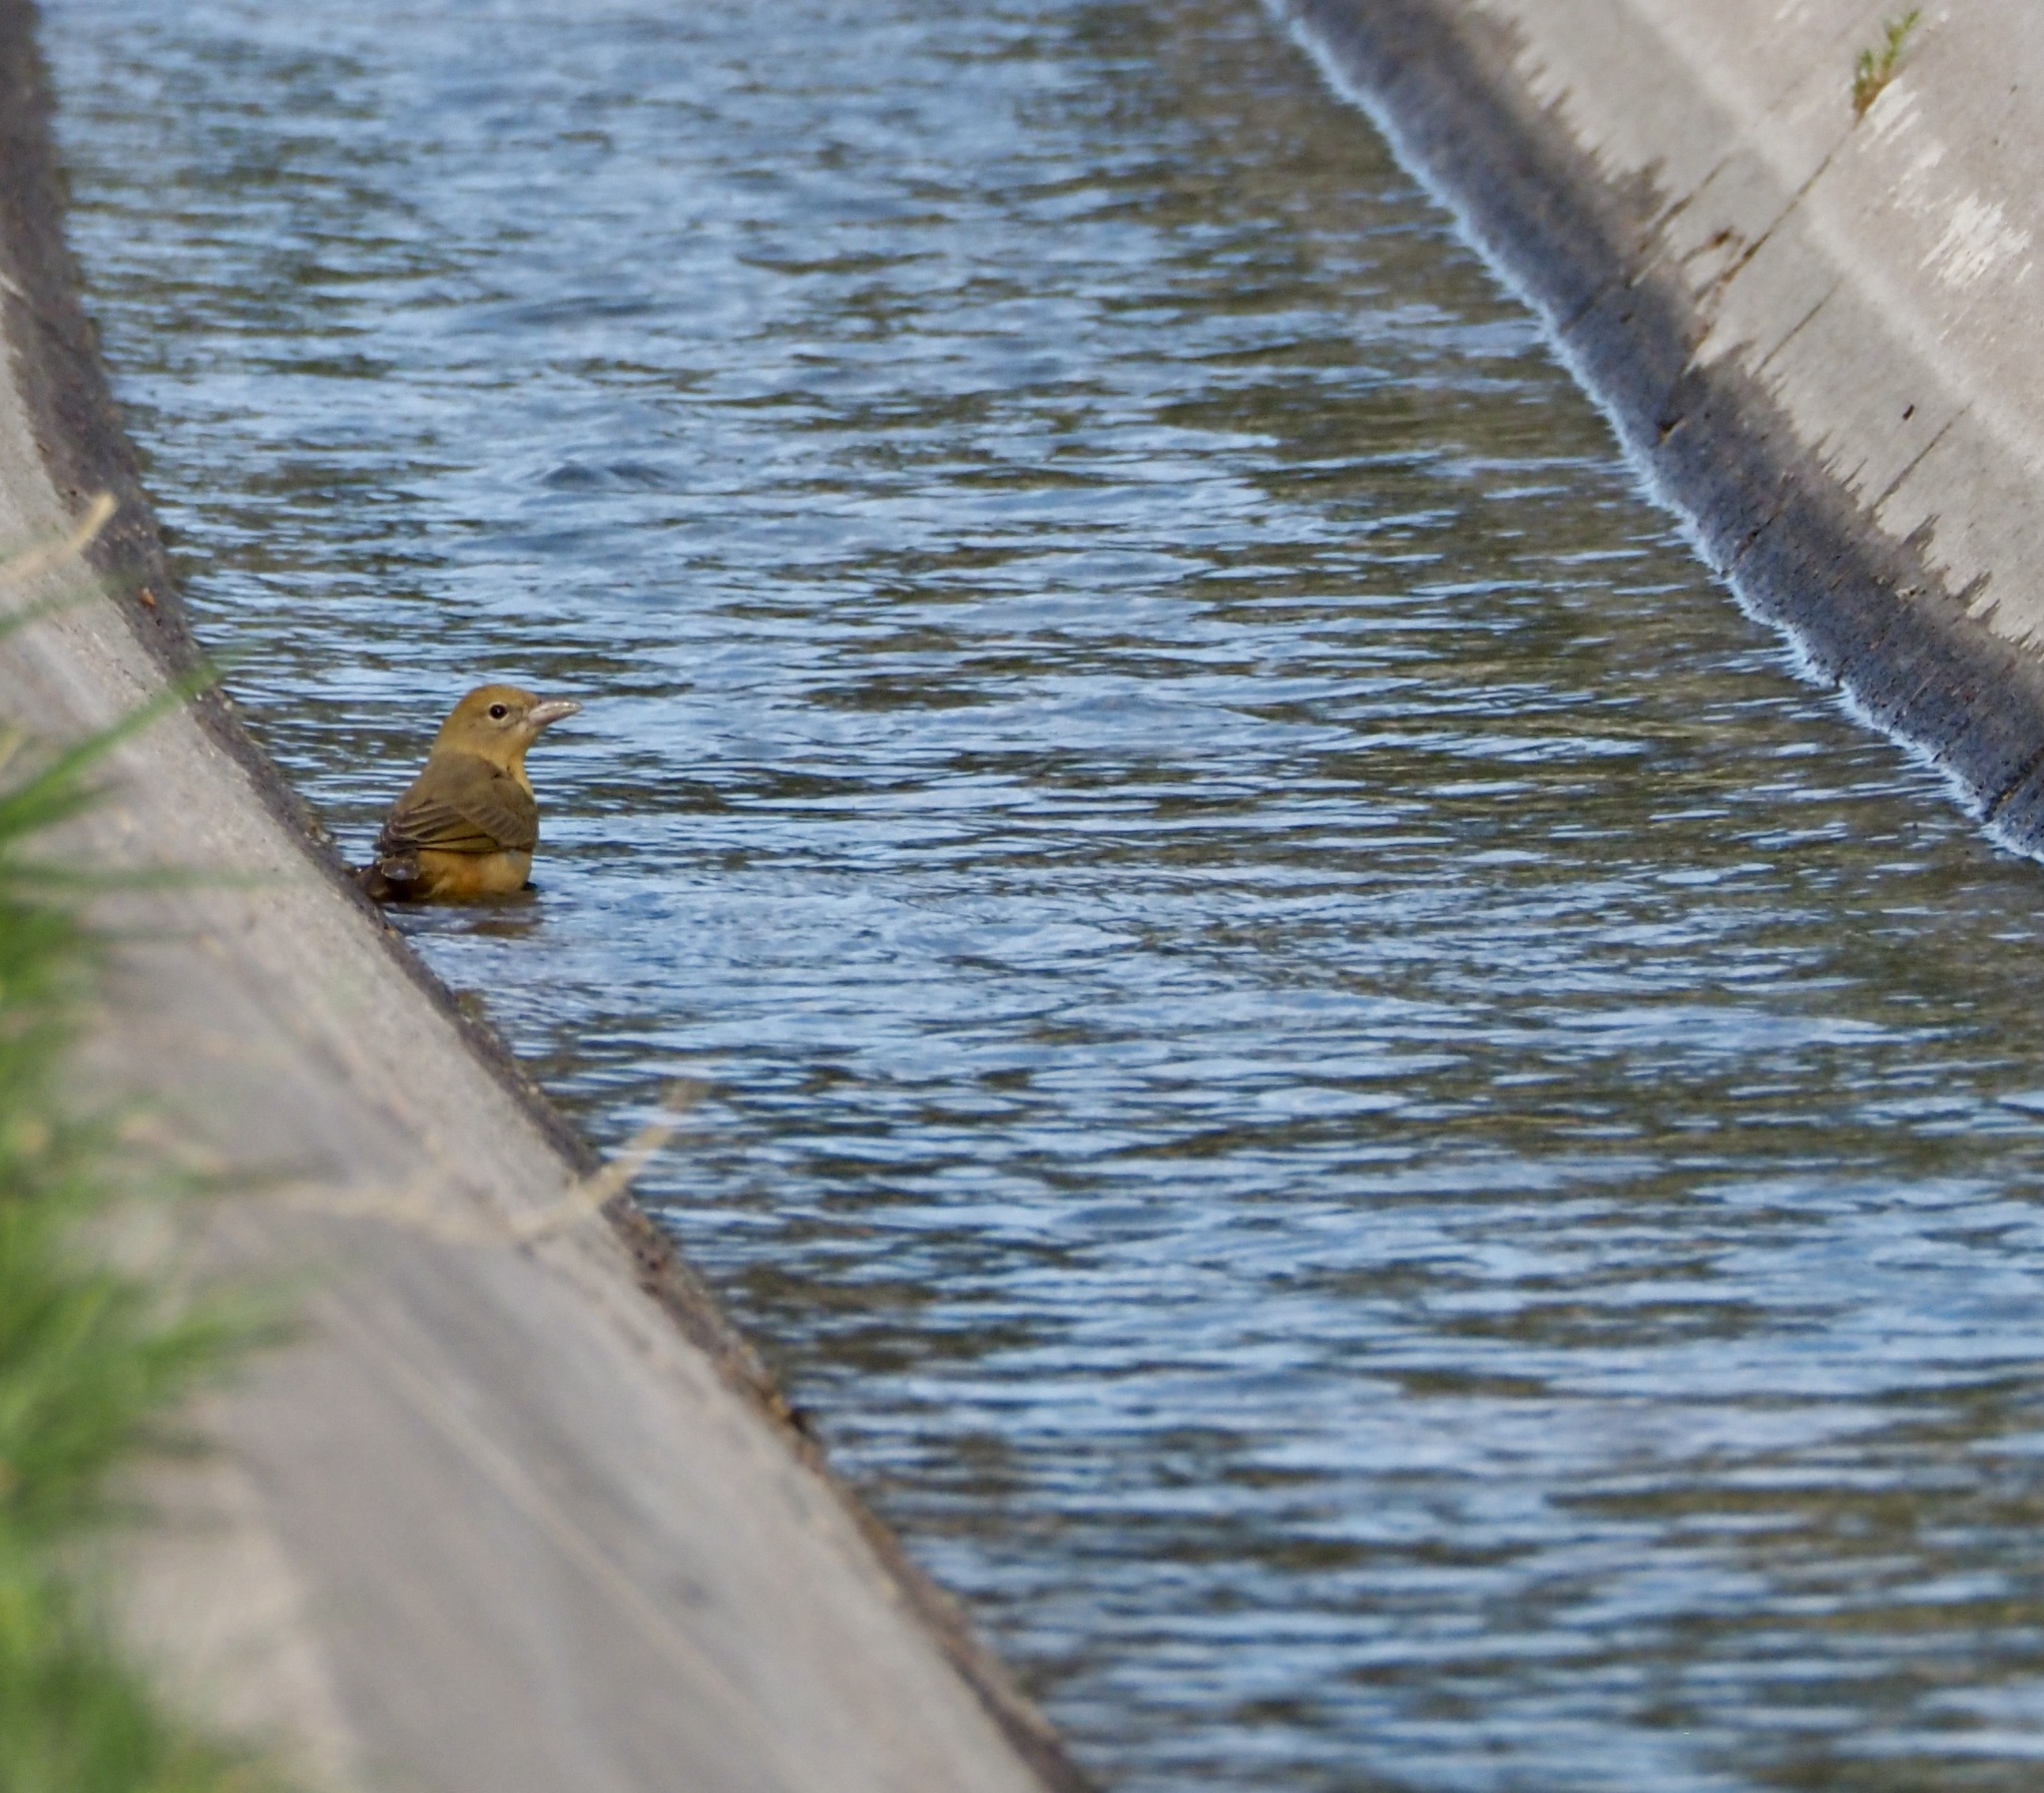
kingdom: Animalia
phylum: Chordata
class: Aves
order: Passeriformes
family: Cardinalidae
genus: Piranga
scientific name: Piranga rubra
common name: Summer tanager
